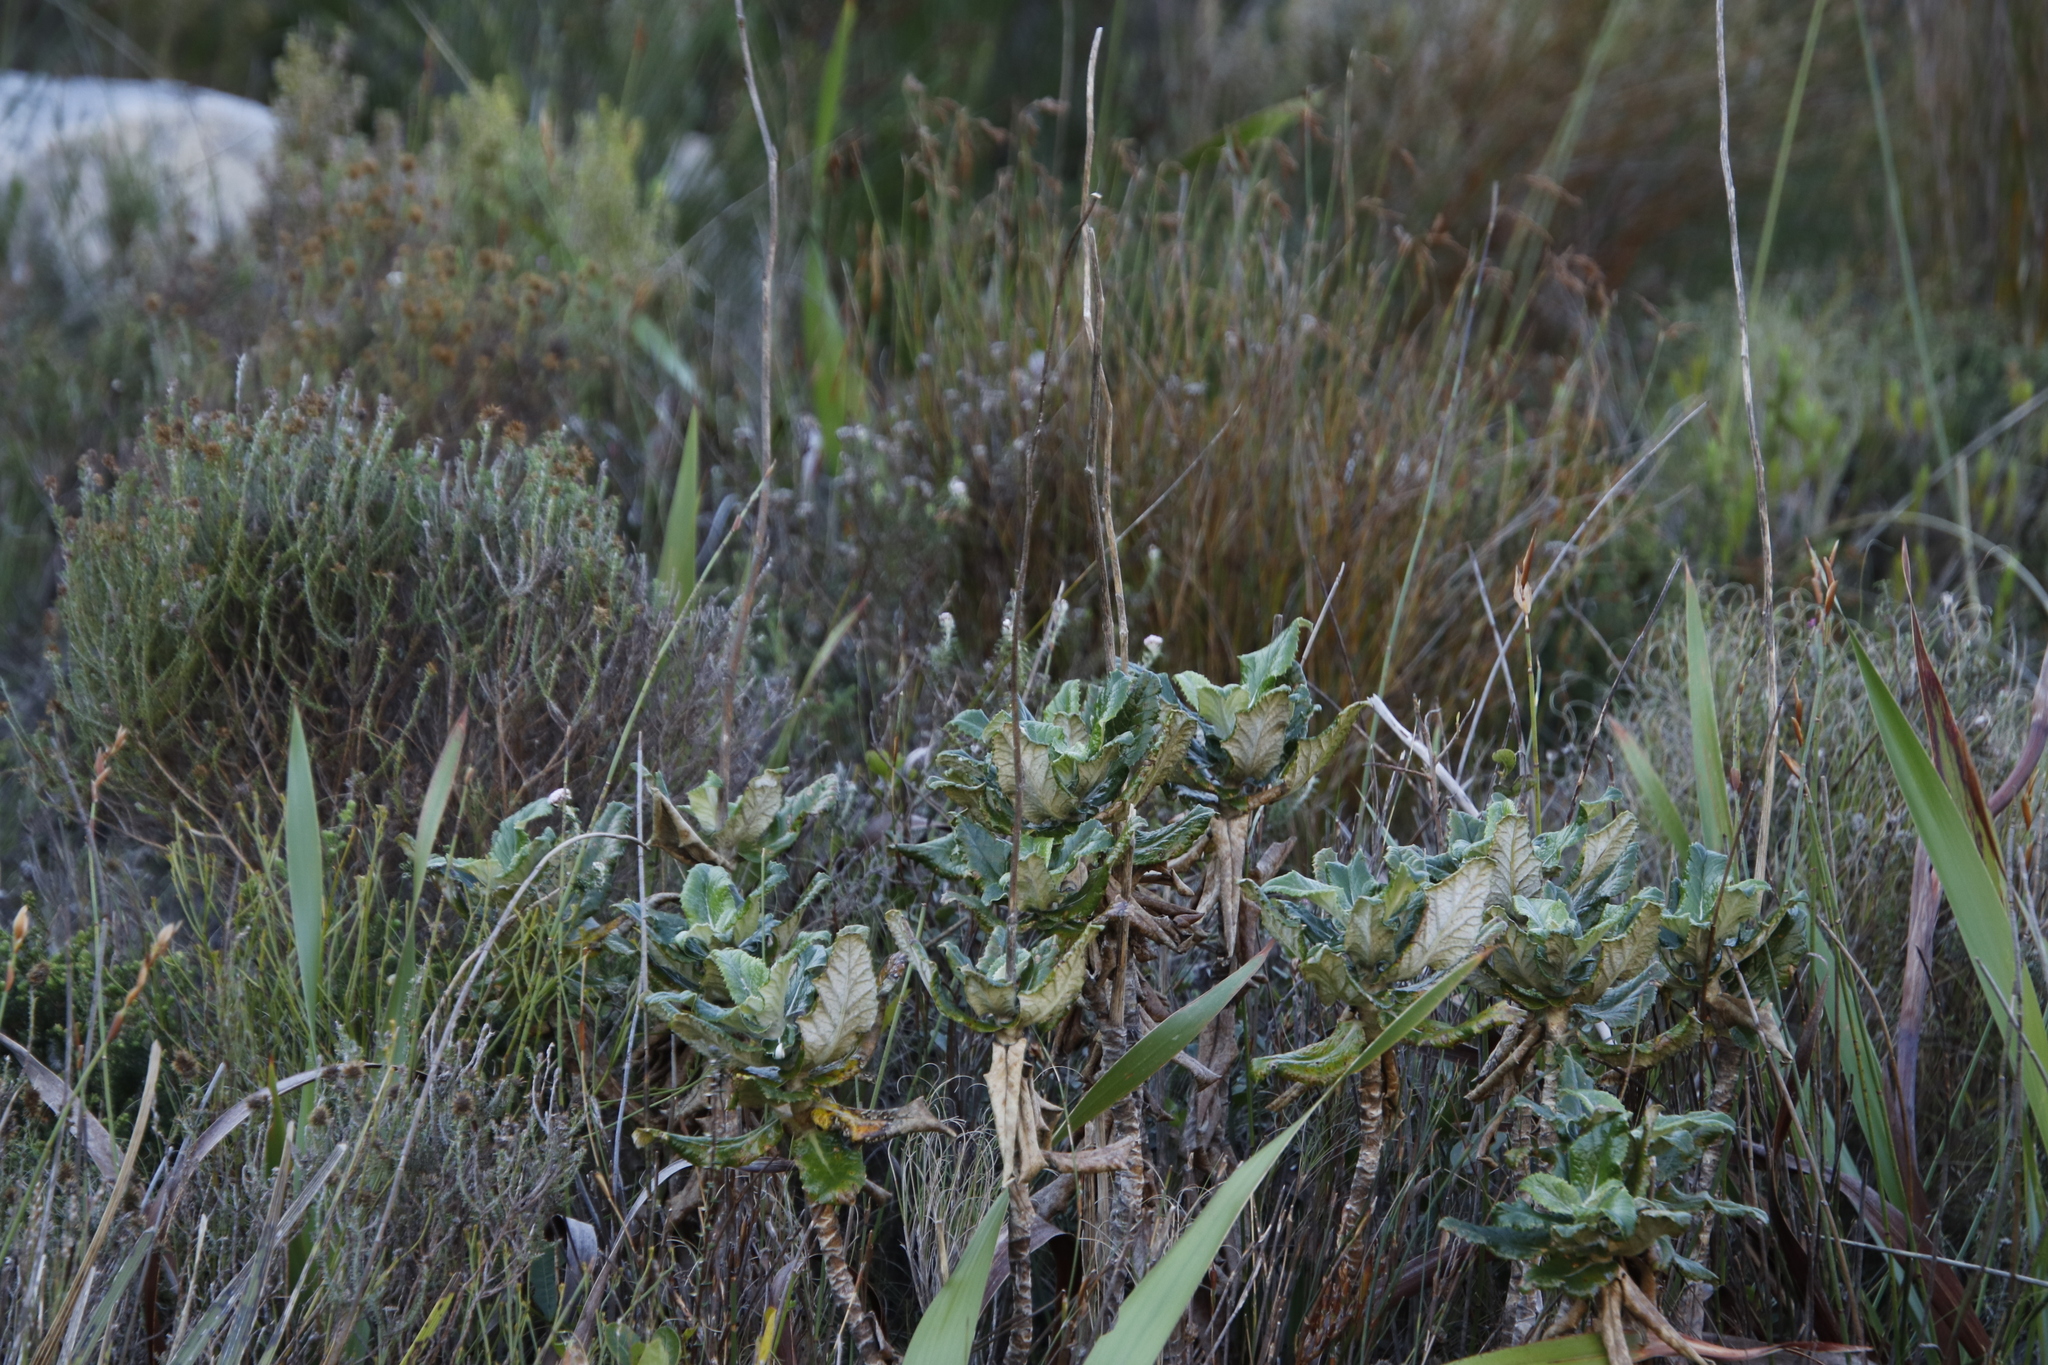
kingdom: Plantae
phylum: Tracheophyta
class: Magnoliopsida
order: Apiales
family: Apiaceae
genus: Hermas
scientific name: Hermas villosa
